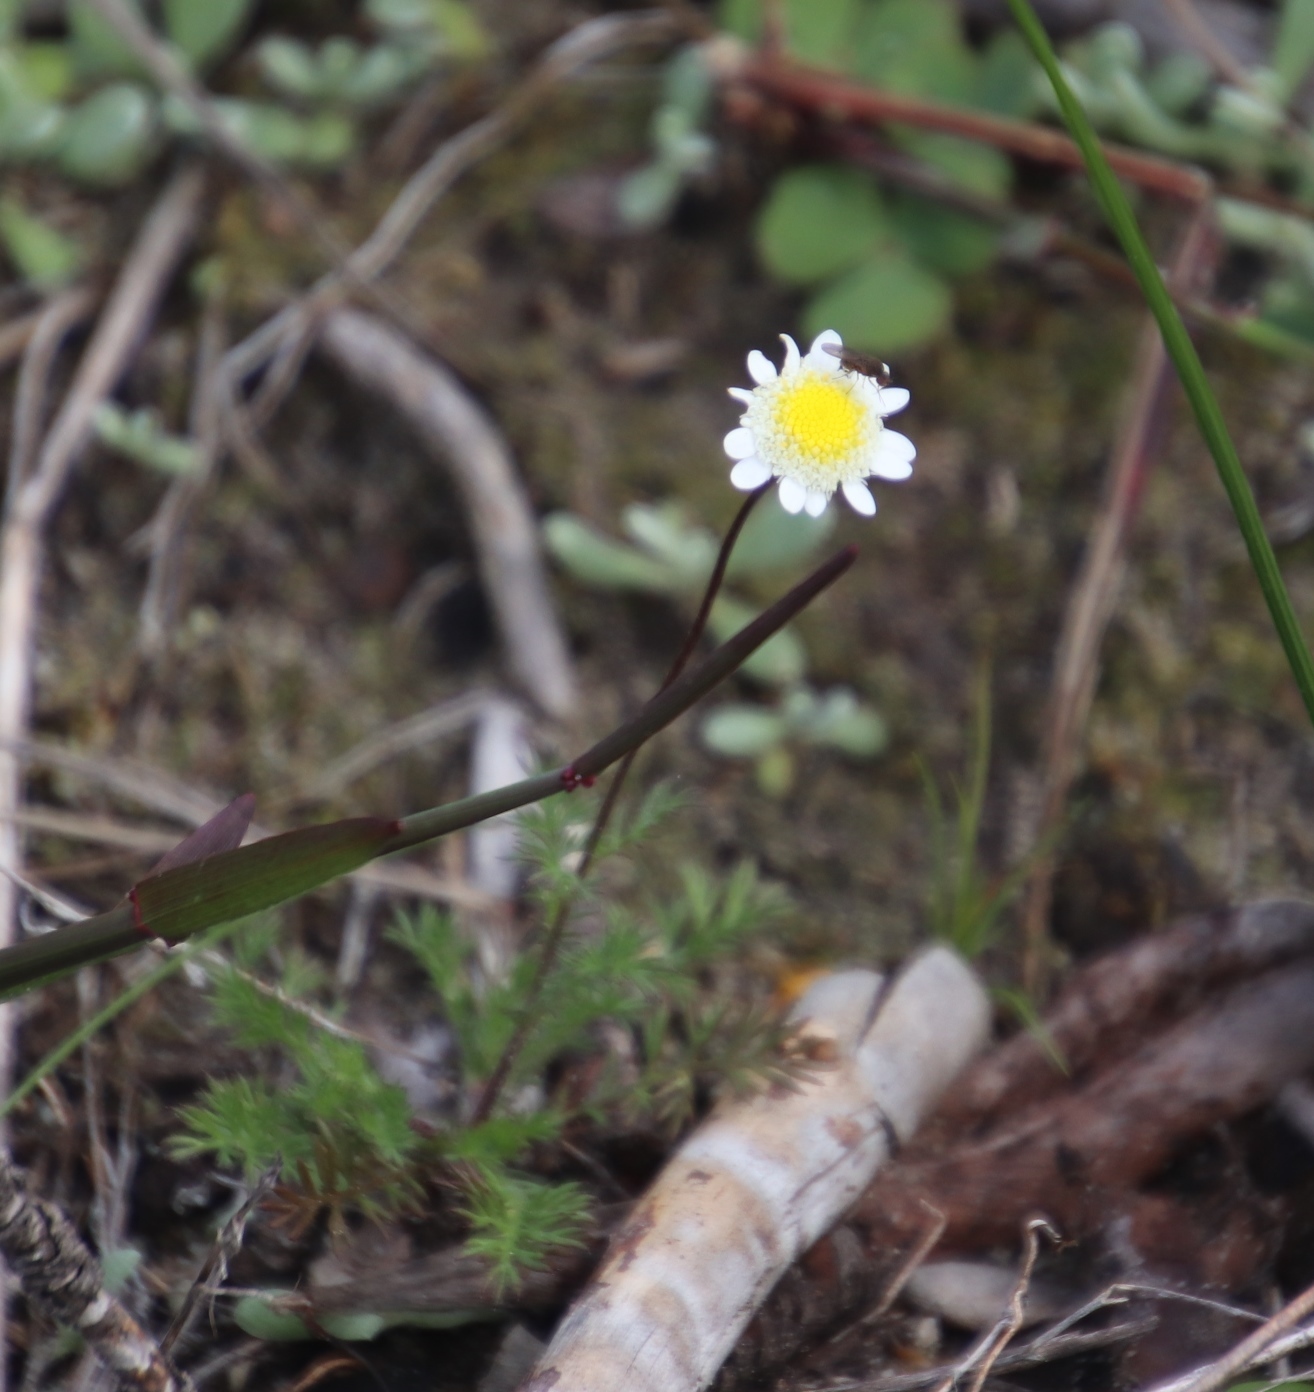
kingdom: Plantae
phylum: Tracheophyta
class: Magnoliopsida
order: Asterales
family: Asteraceae
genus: Cotula
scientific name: Cotula turbinata
